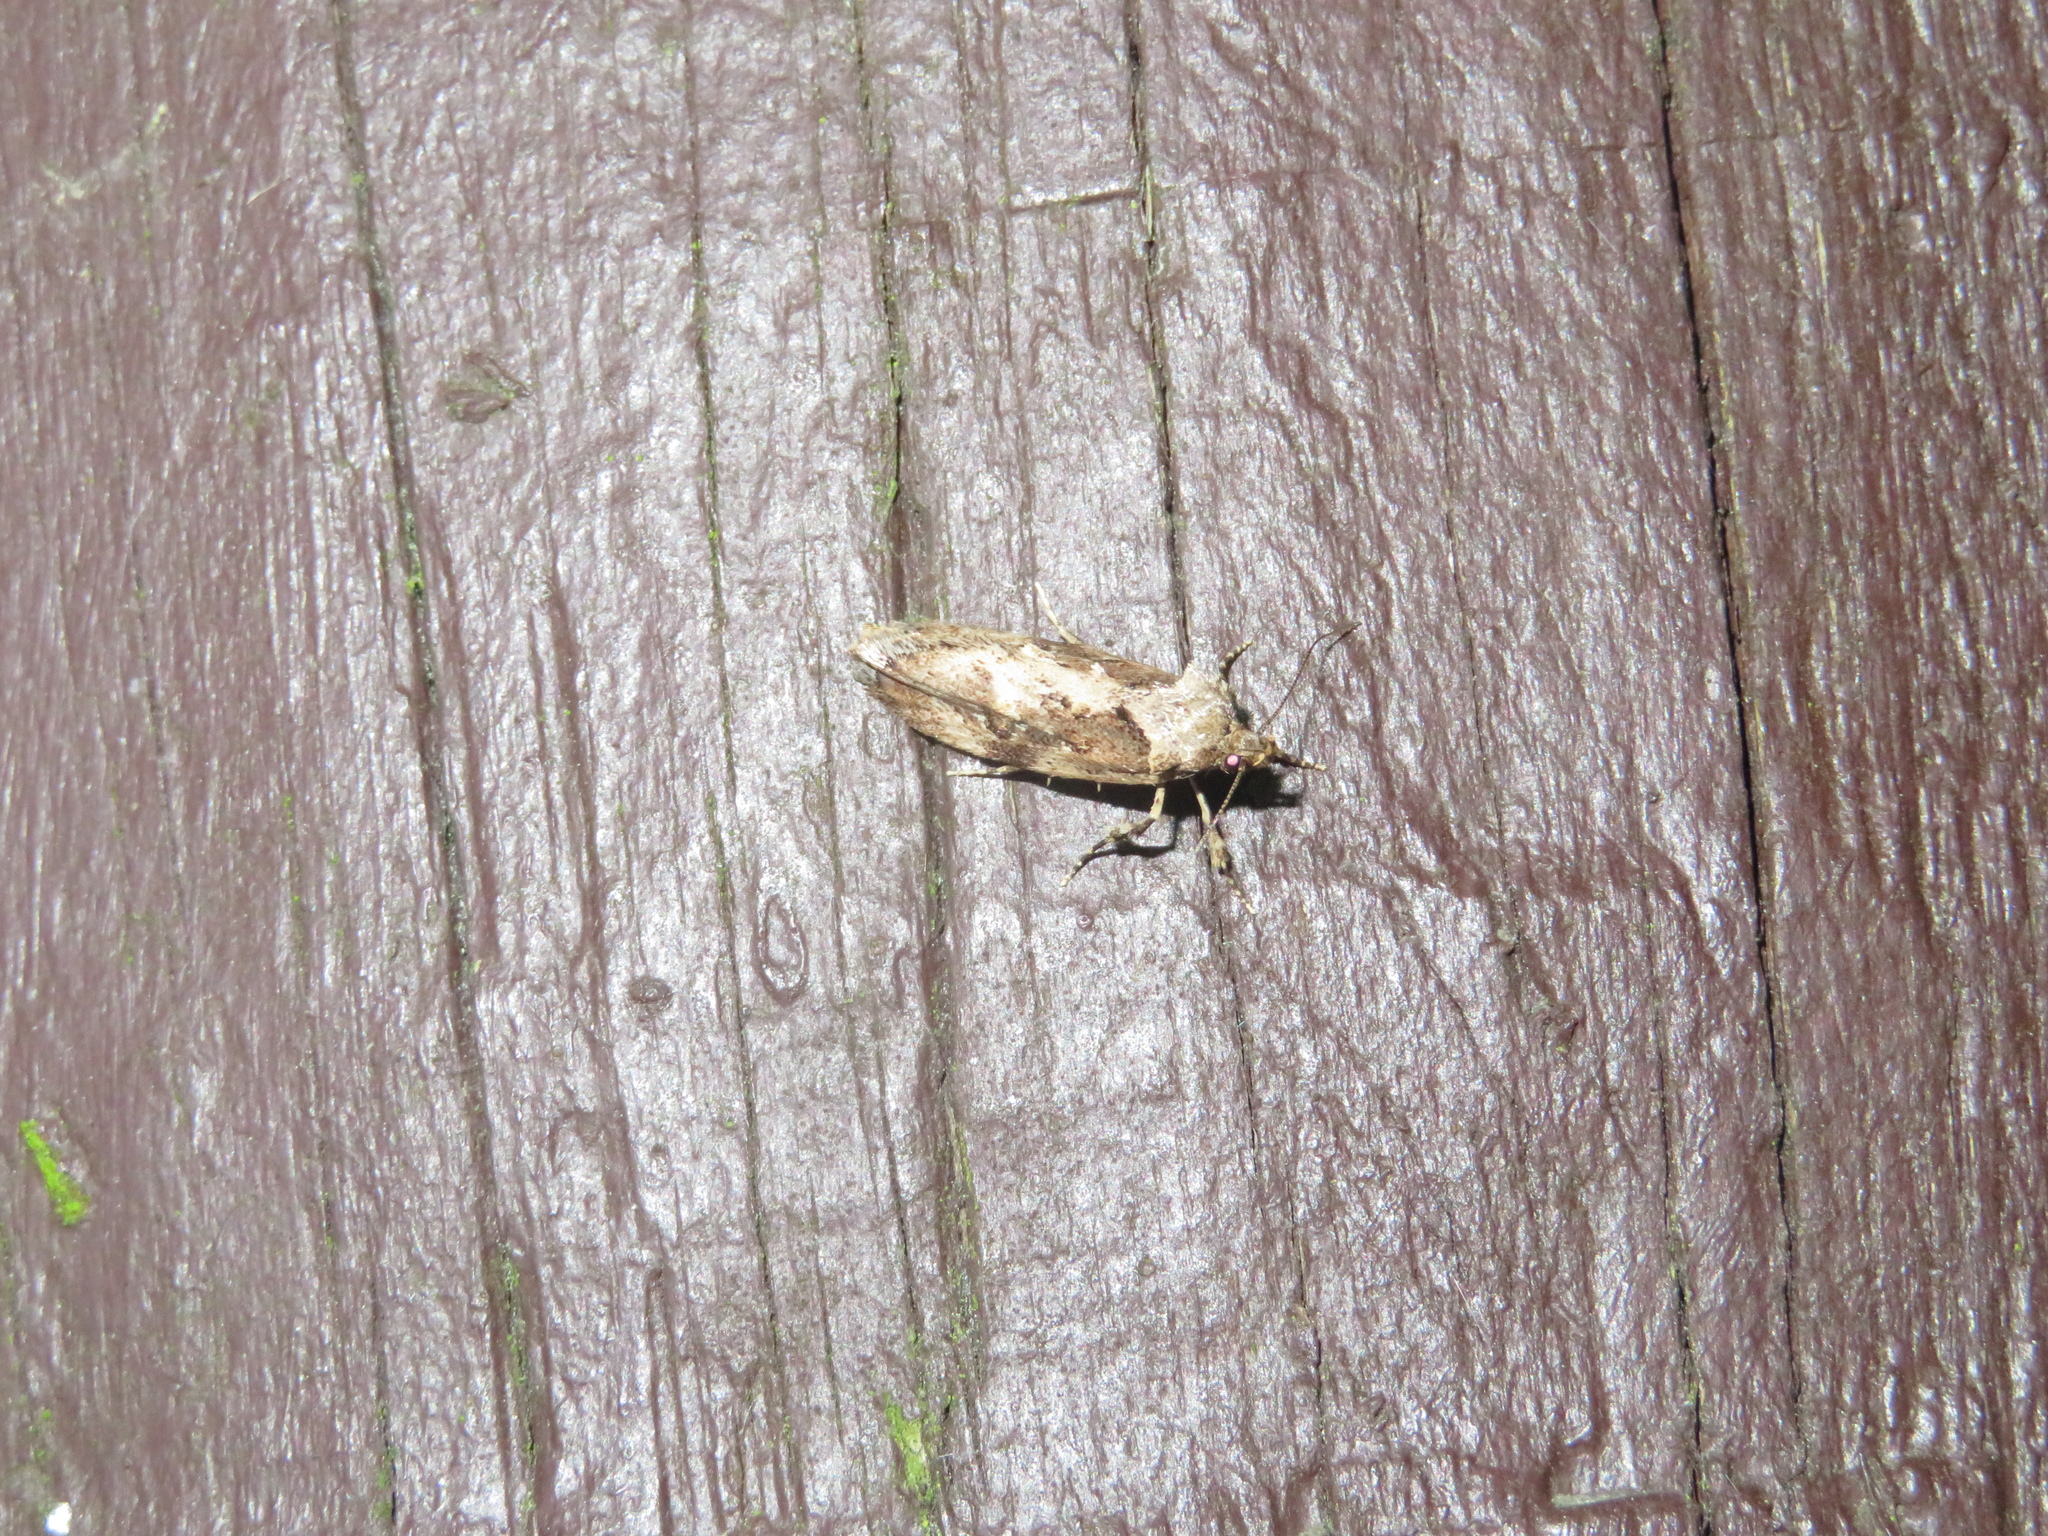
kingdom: Animalia
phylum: Arthropoda
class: Insecta
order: Lepidoptera
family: Oecophoridae
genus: Atomotricha
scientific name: Atomotricha isogama
